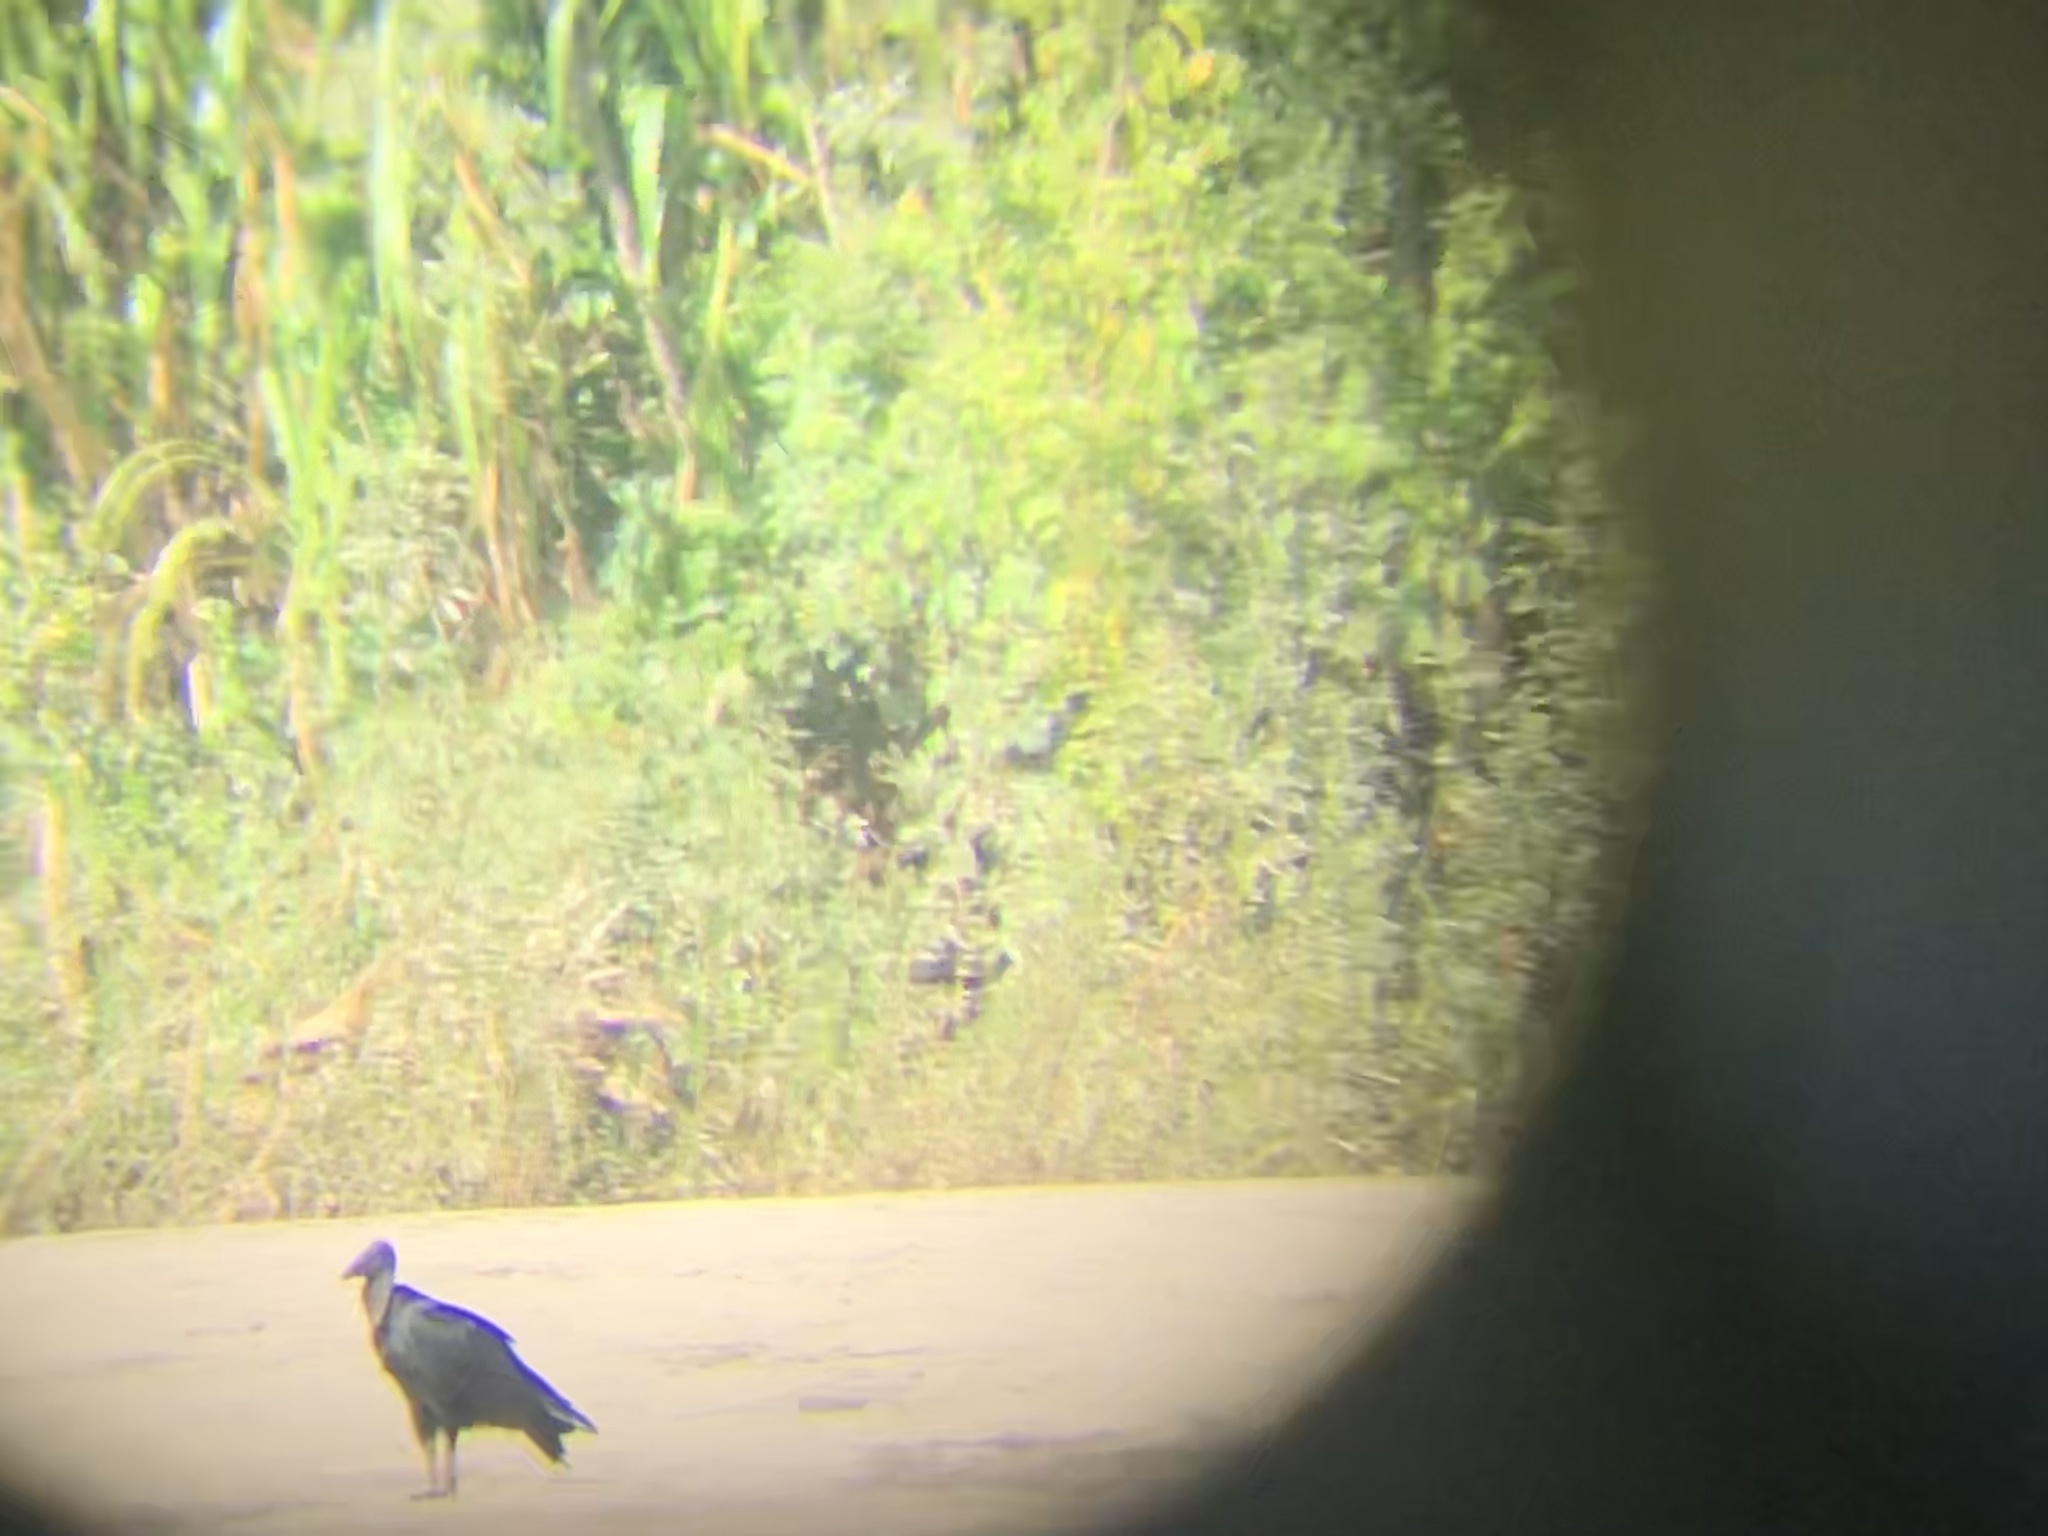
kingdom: Animalia
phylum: Chordata
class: Aves
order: Accipitriformes
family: Cathartidae
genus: Coragyps
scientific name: Coragyps atratus
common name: Black vulture
